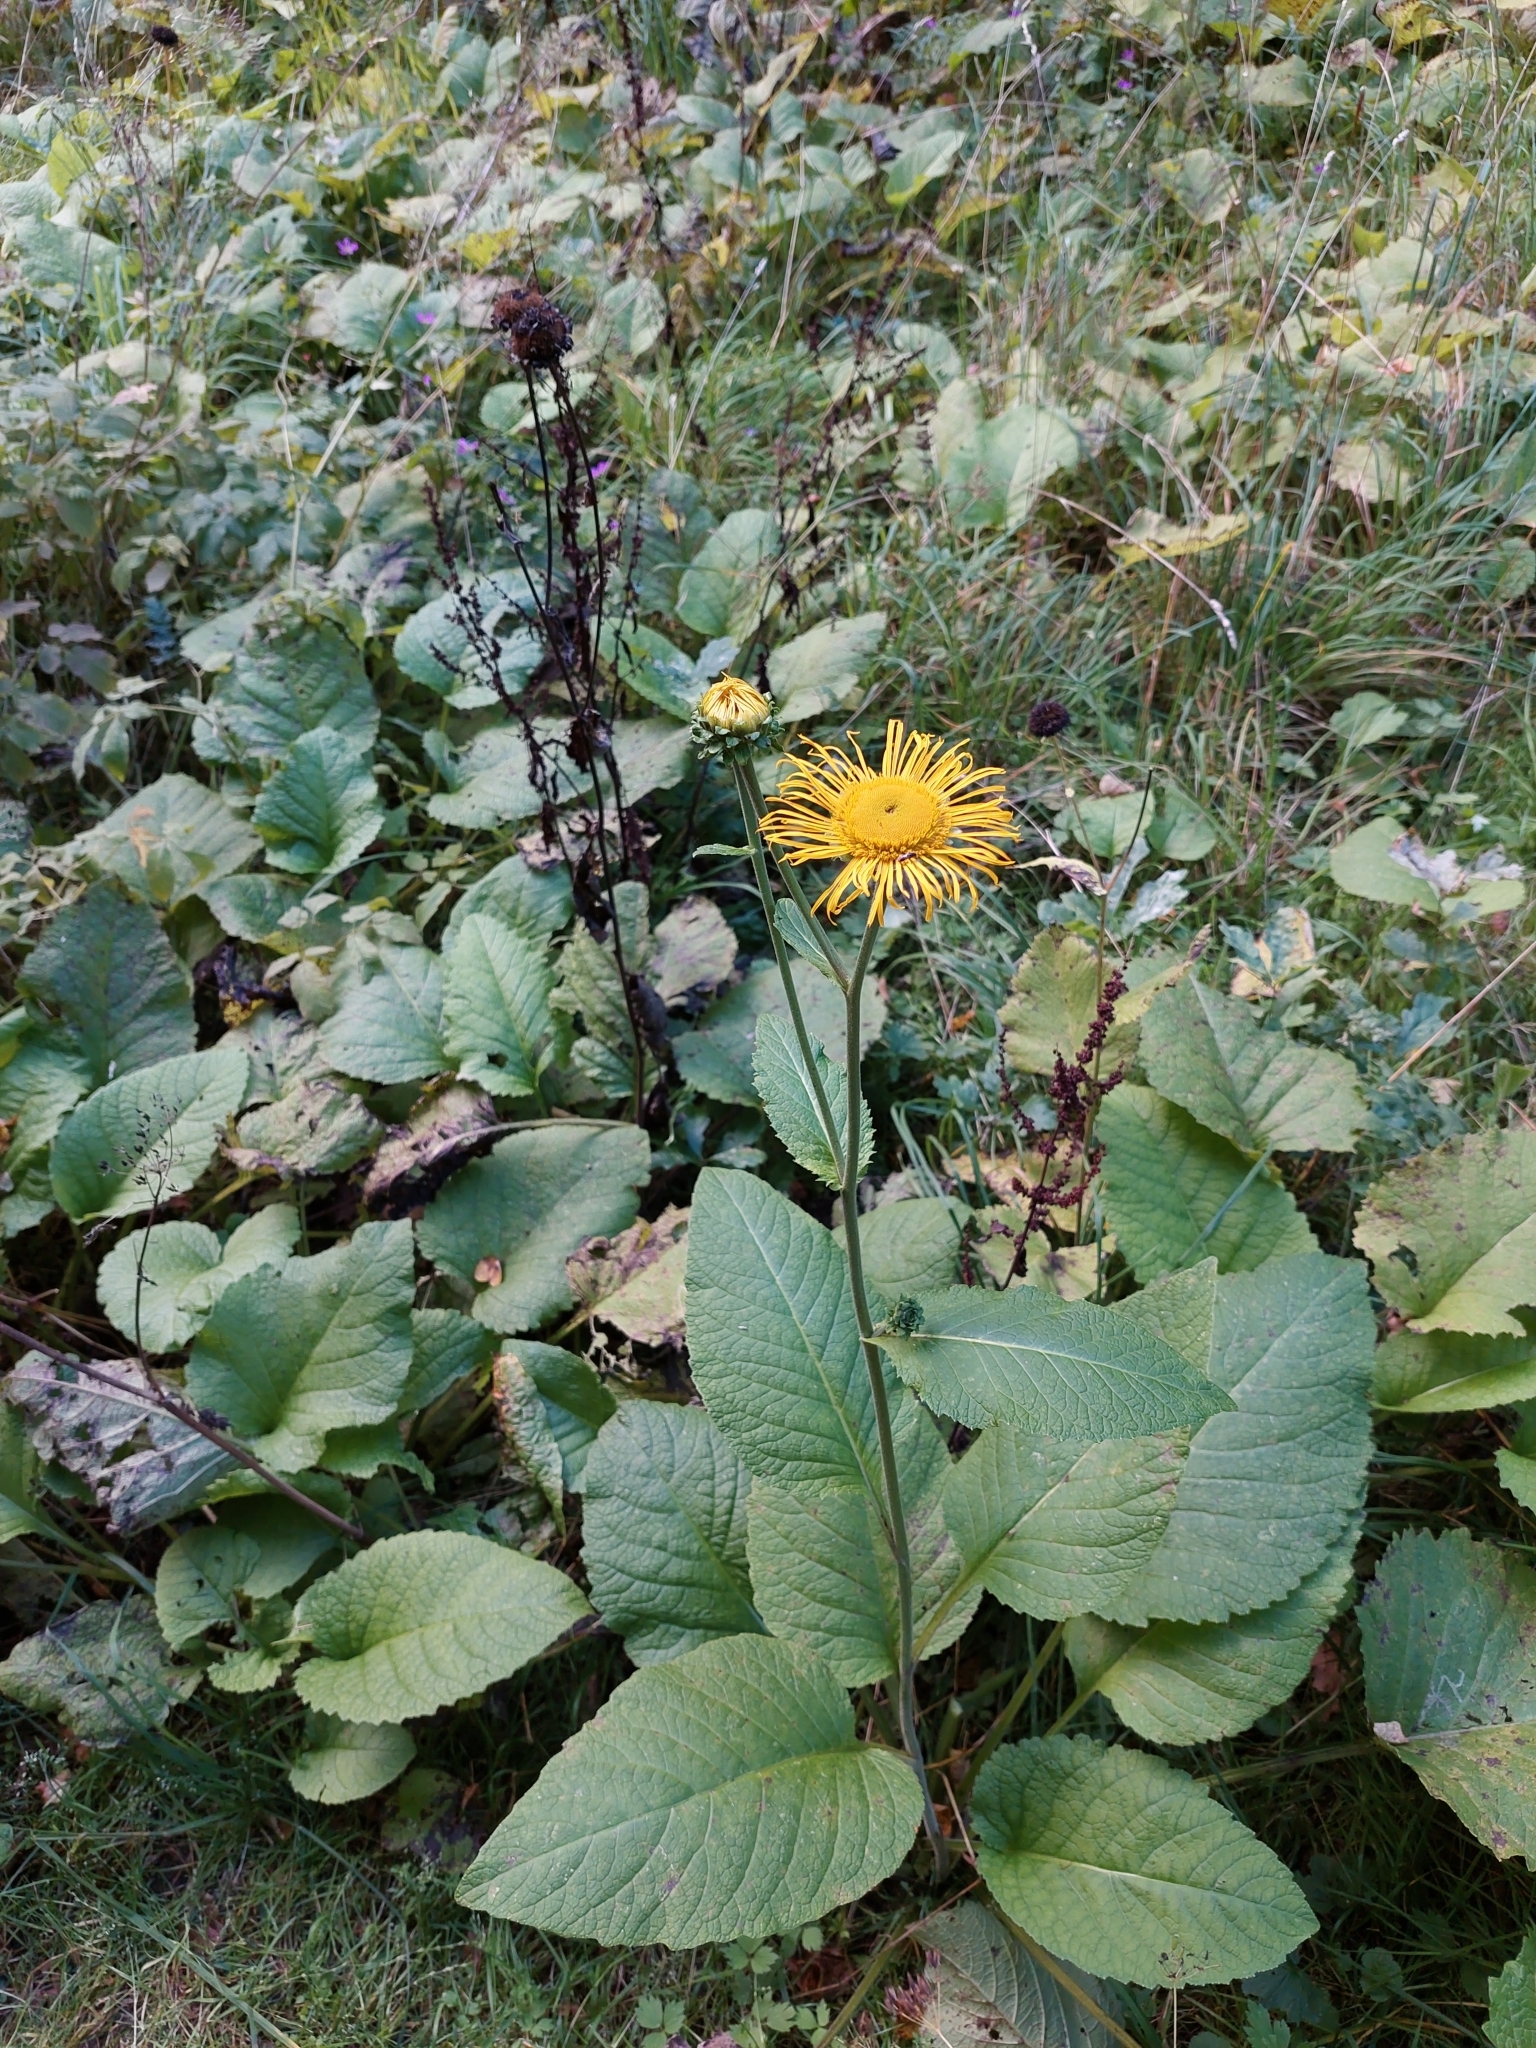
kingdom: Plantae
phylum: Tracheophyta
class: Magnoliopsida
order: Asterales
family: Asteraceae
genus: Telekia
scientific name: Telekia speciosa
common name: Yellow oxeye
